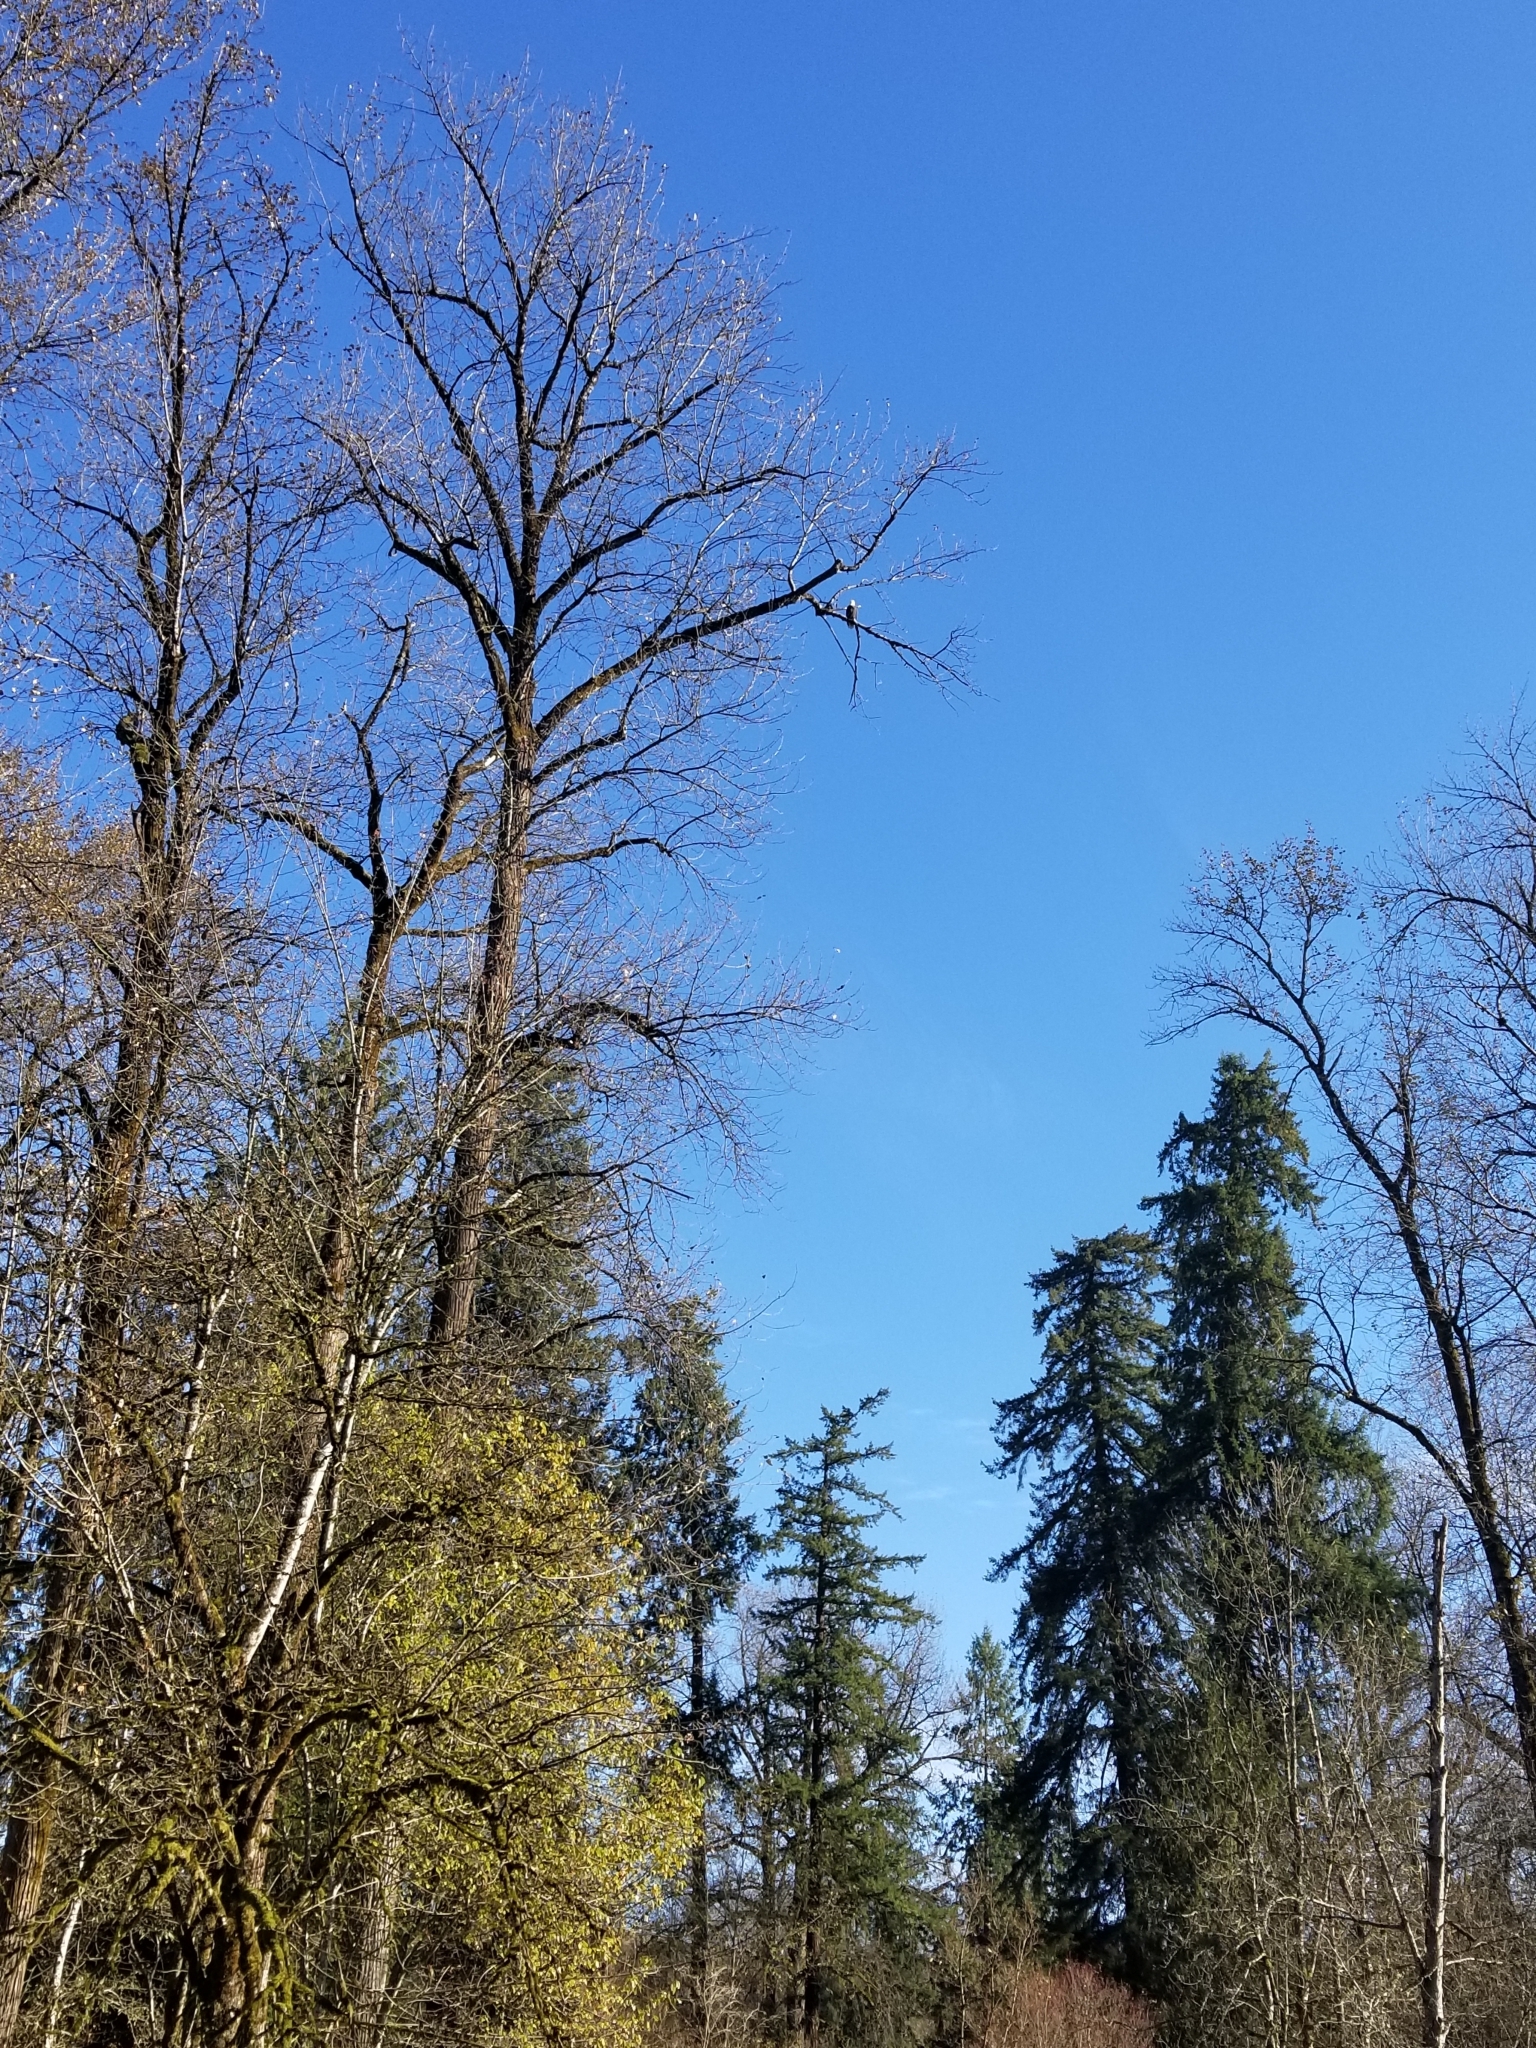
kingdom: Animalia
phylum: Chordata
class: Aves
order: Accipitriformes
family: Accipitridae
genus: Haliaeetus
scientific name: Haliaeetus leucocephalus
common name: Bald eagle
